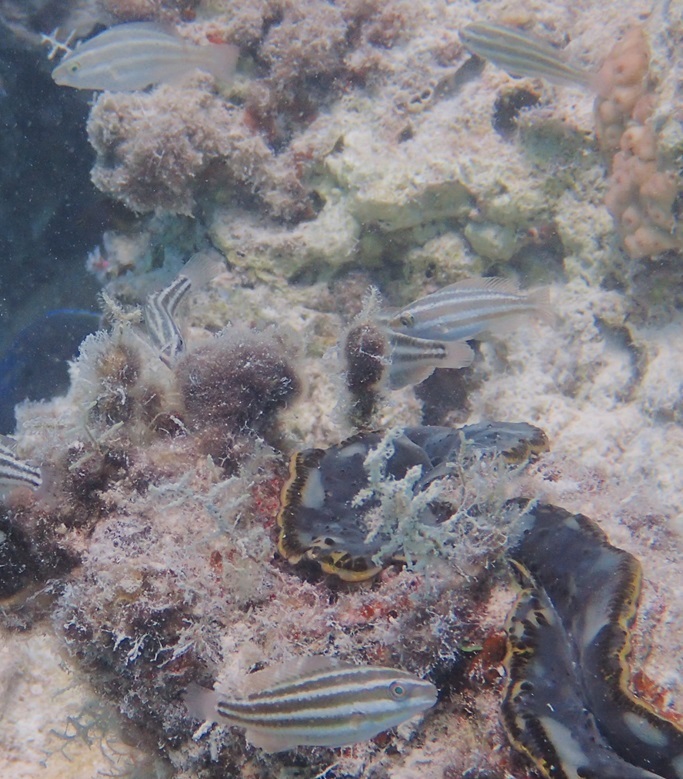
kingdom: Animalia
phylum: Chordata
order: Perciformes
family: Scaridae
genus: Chlorurus
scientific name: Chlorurus sordidus
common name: Bullethead parrotfish
